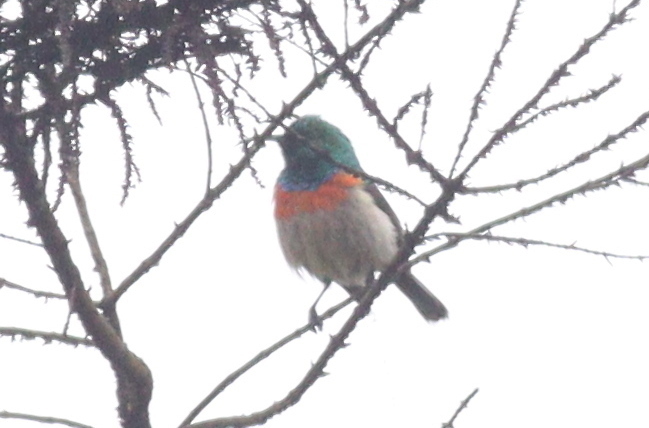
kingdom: Animalia
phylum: Chordata
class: Aves
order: Passeriformes
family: Nectariniidae
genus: Cinnyris
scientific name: Cinnyris mediocris
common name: Eastern double-collared sunbird
